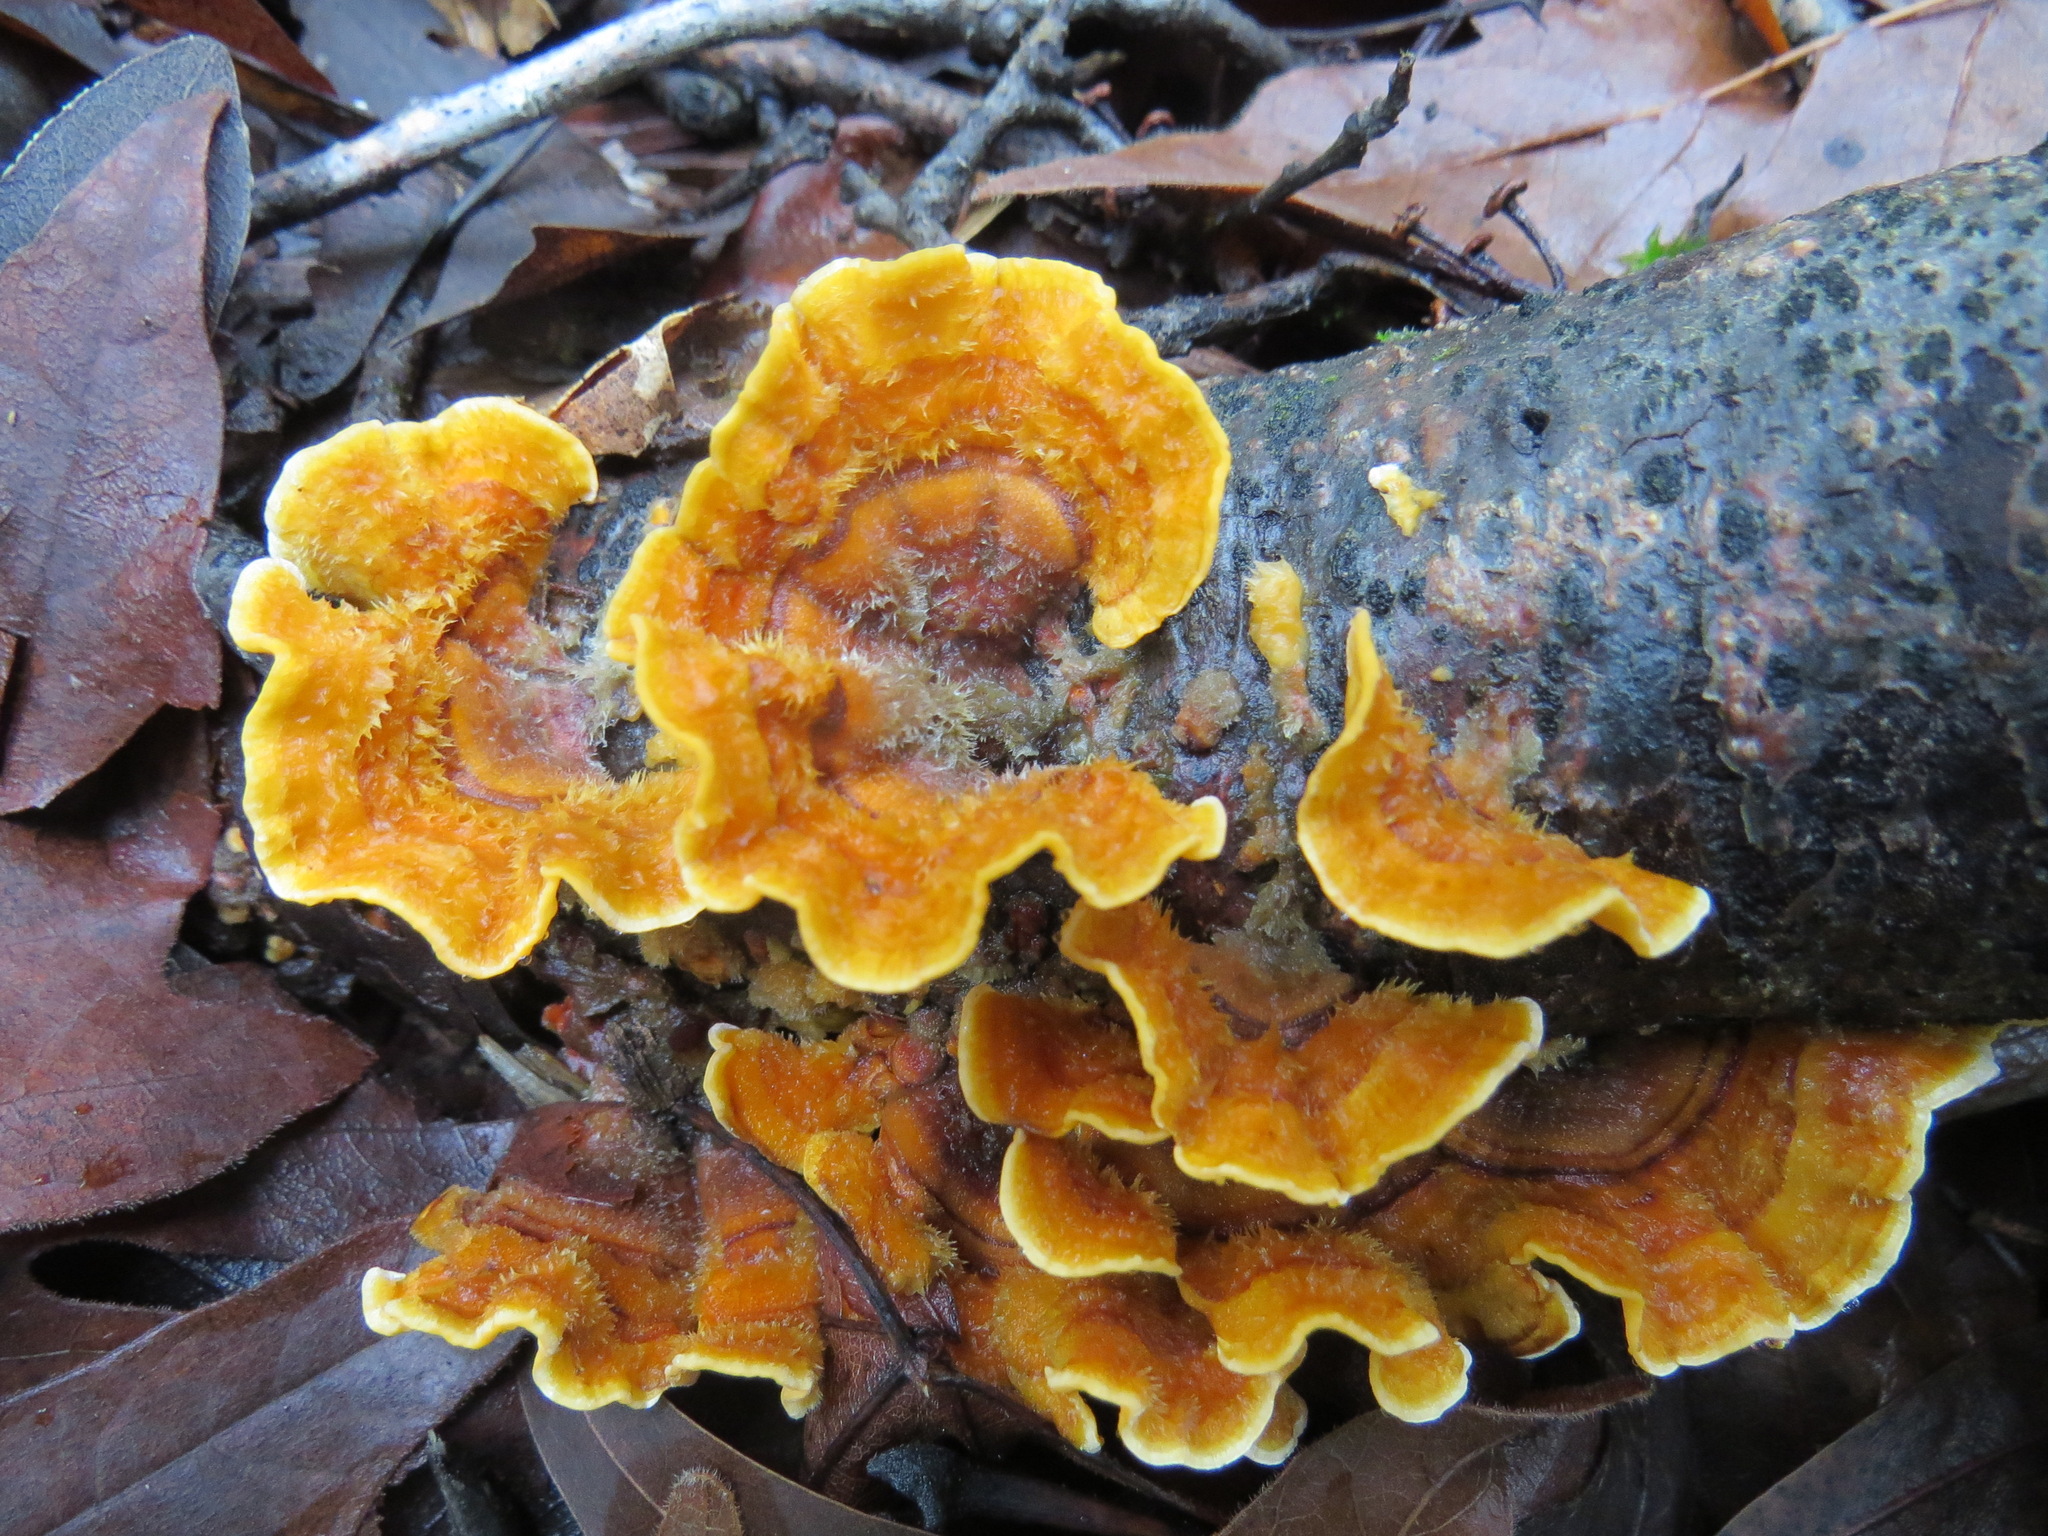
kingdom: Fungi
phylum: Basidiomycota
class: Agaricomycetes
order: Russulales
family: Stereaceae
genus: Stereum
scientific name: Stereum hirsutum
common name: Hairy curtain crust
